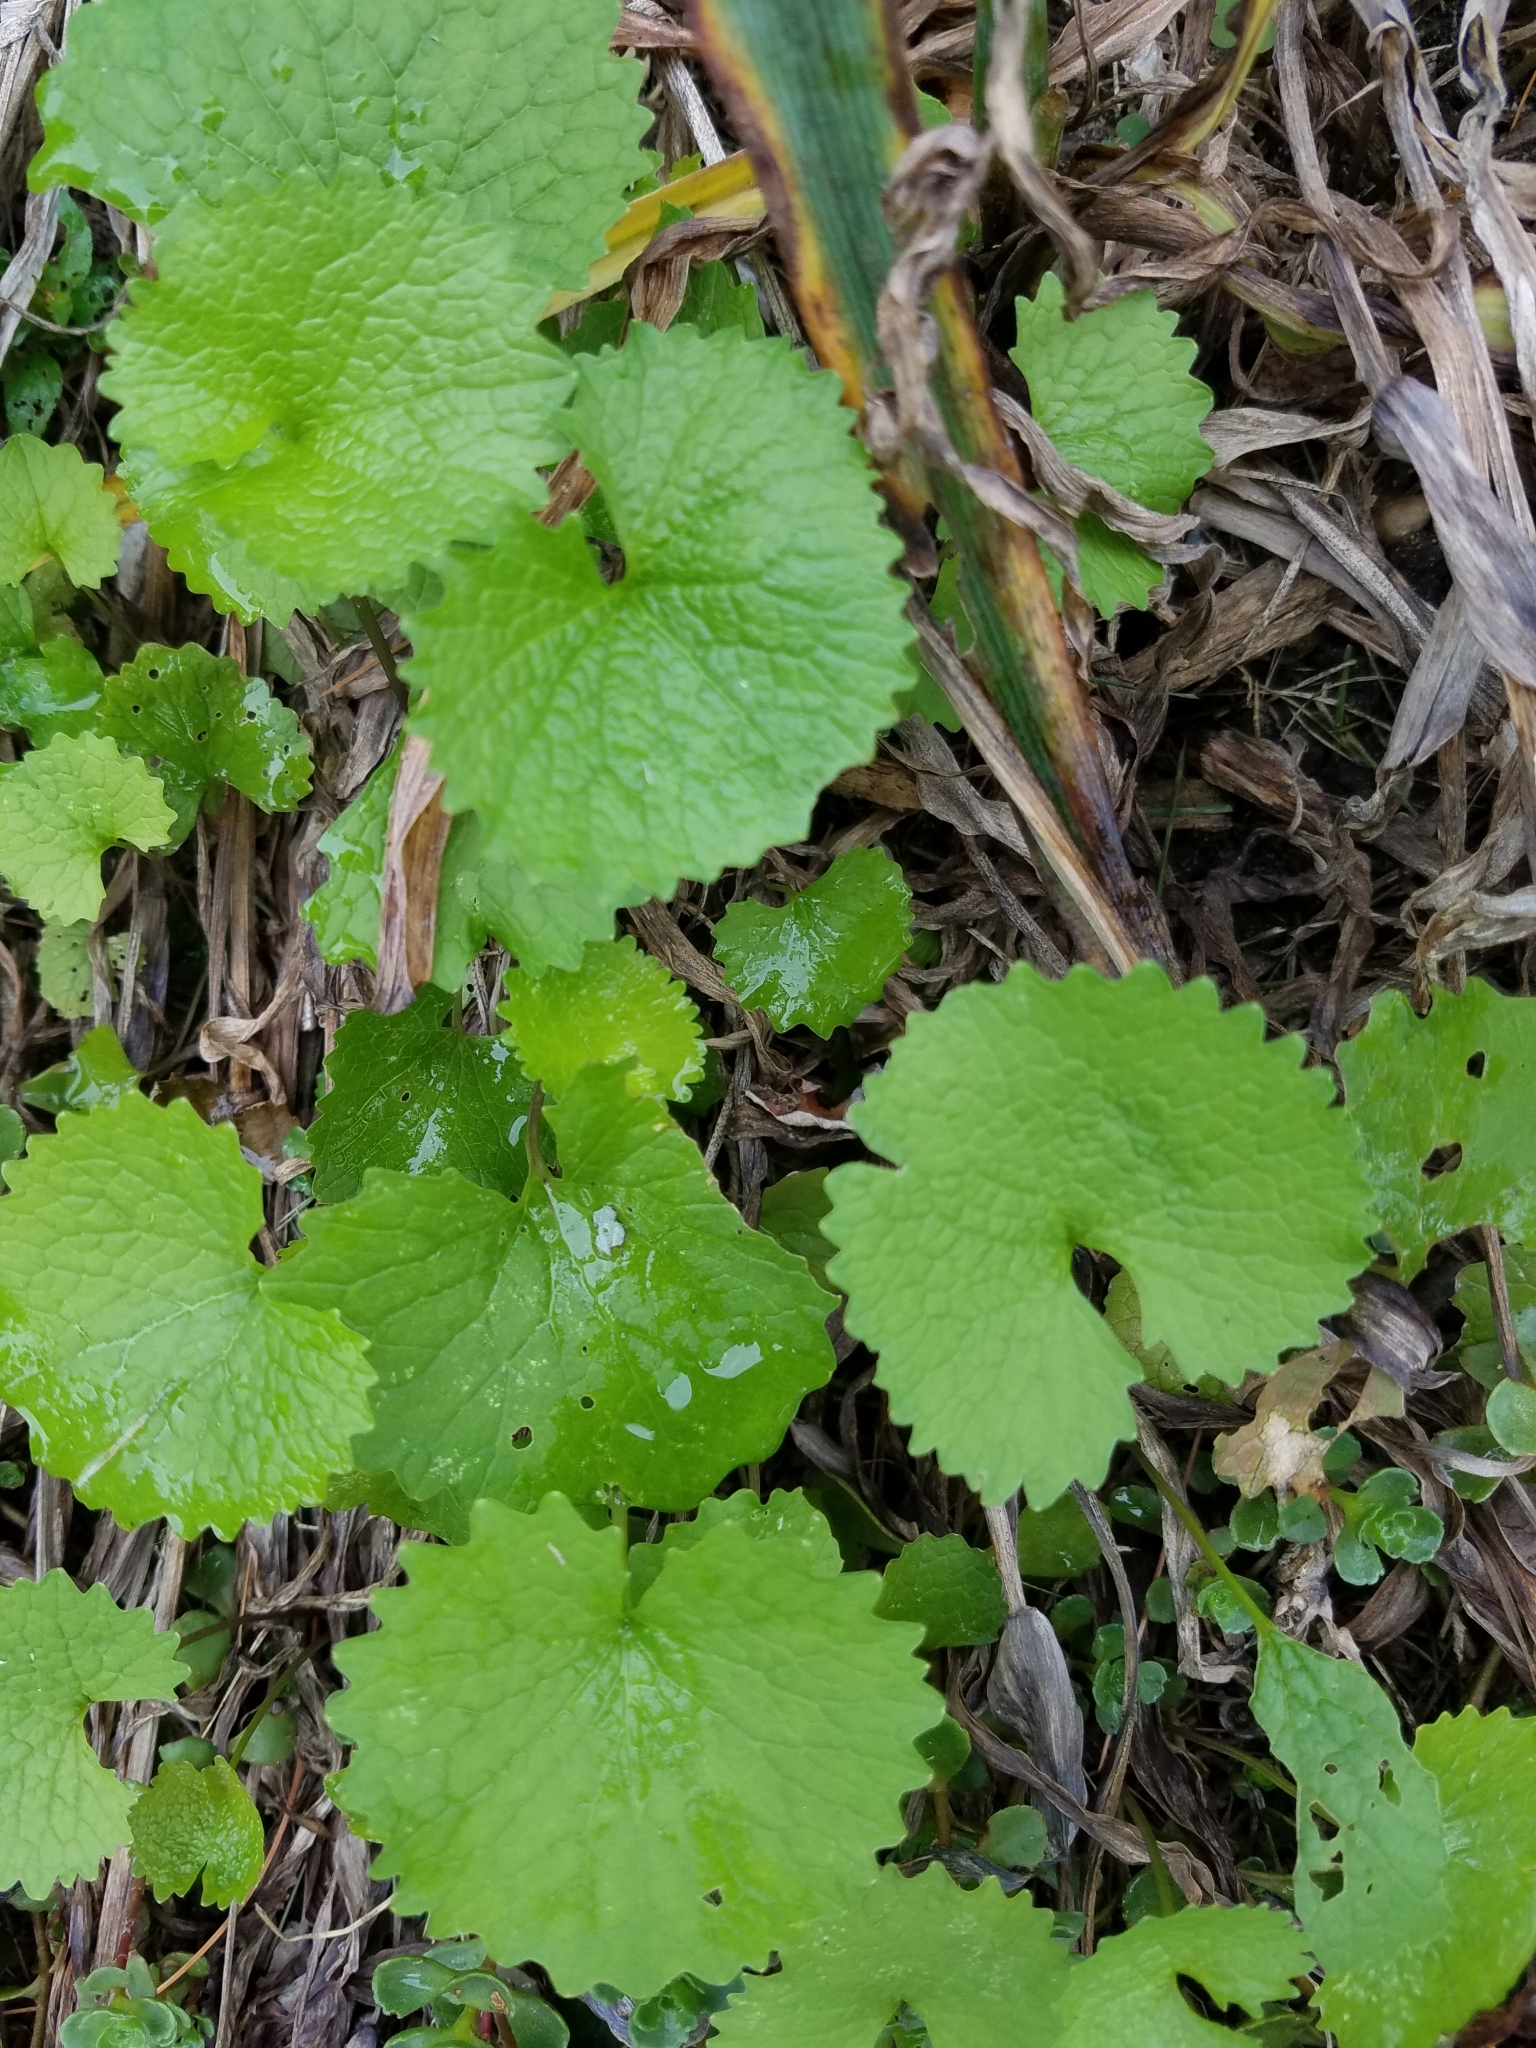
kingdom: Plantae
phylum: Tracheophyta
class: Magnoliopsida
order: Brassicales
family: Brassicaceae
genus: Alliaria
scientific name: Alliaria petiolata
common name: Garlic mustard
